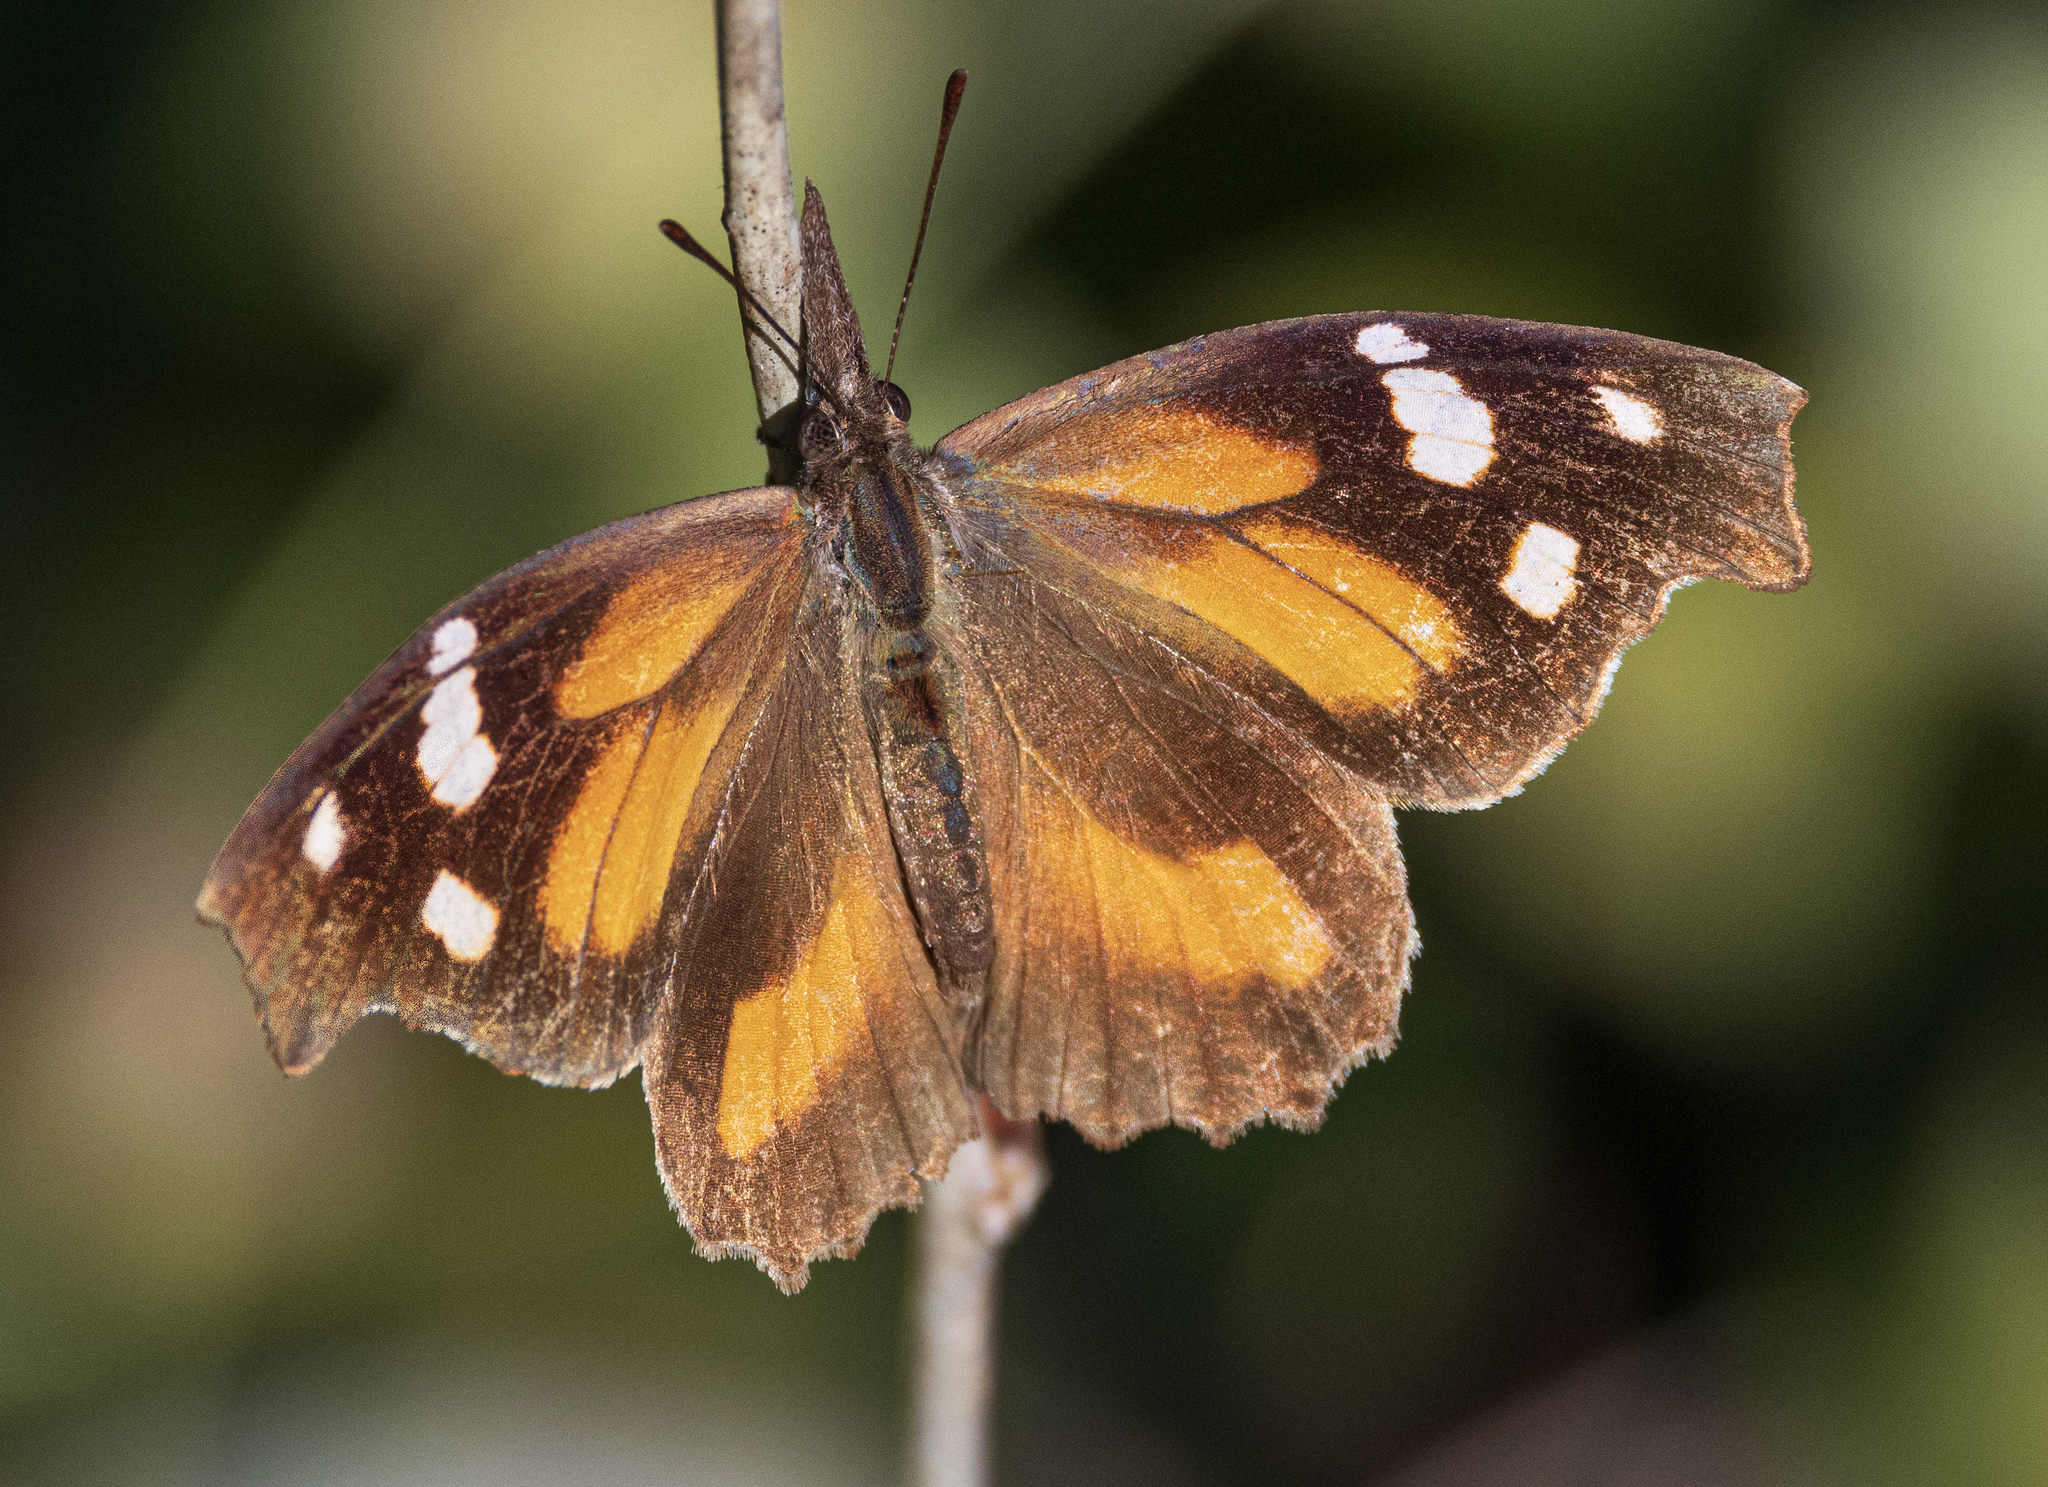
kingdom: Animalia
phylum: Arthropoda
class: Insecta
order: Lepidoptera
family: Nymphalidae
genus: Libytheana
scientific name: Libytheana carinenta
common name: American snout
